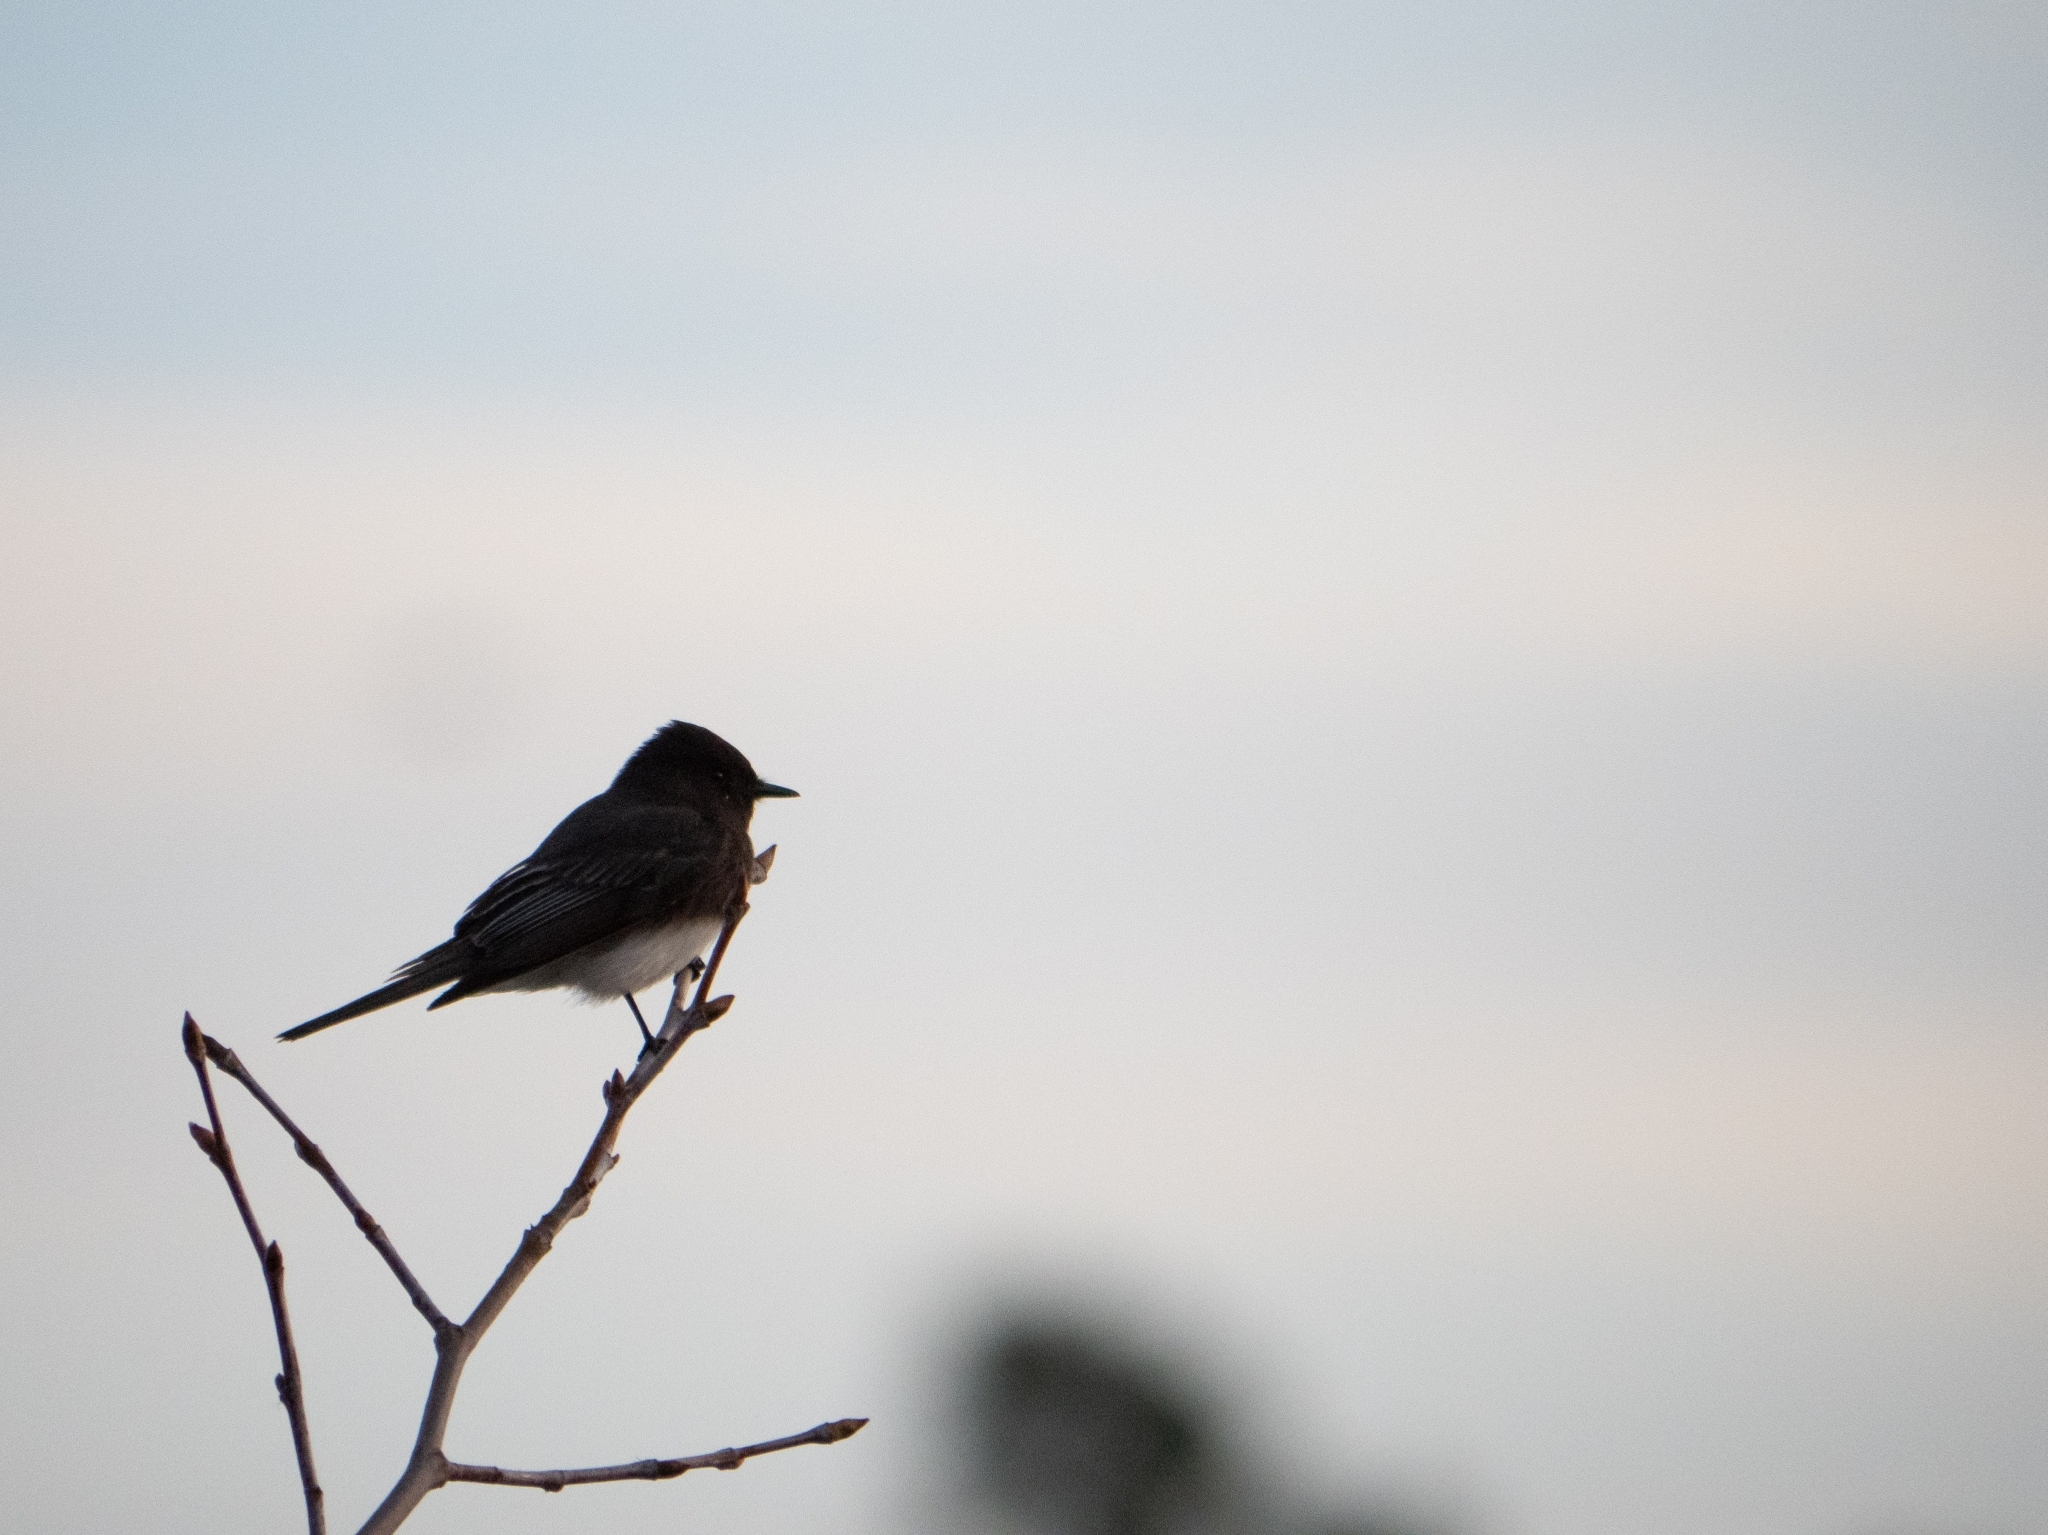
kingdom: Animalia
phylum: Chordata
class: Aves
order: Passeriformes
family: Tyrannidae
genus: Sayornis
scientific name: Sayornis nigricans
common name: Black phoebe
